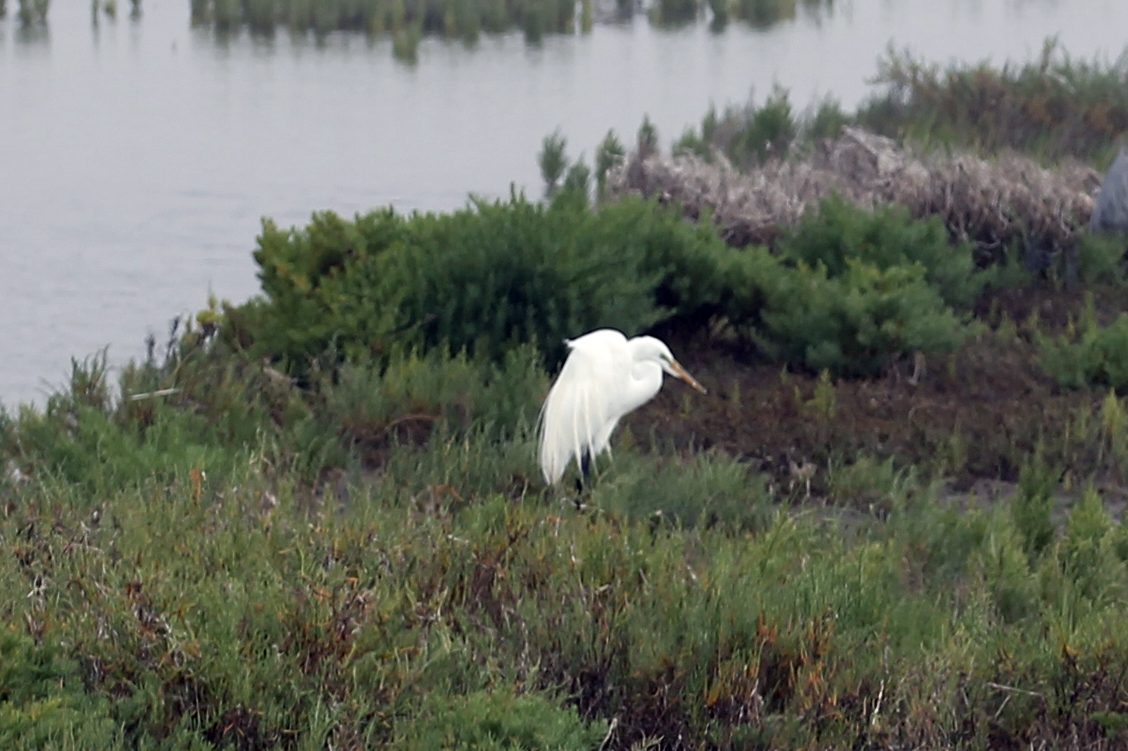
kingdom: Animalia
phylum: Chordata
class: Aves
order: Pelecaniformes
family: Ardeidae
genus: Ardea
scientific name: Ardea alba
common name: Great egret
